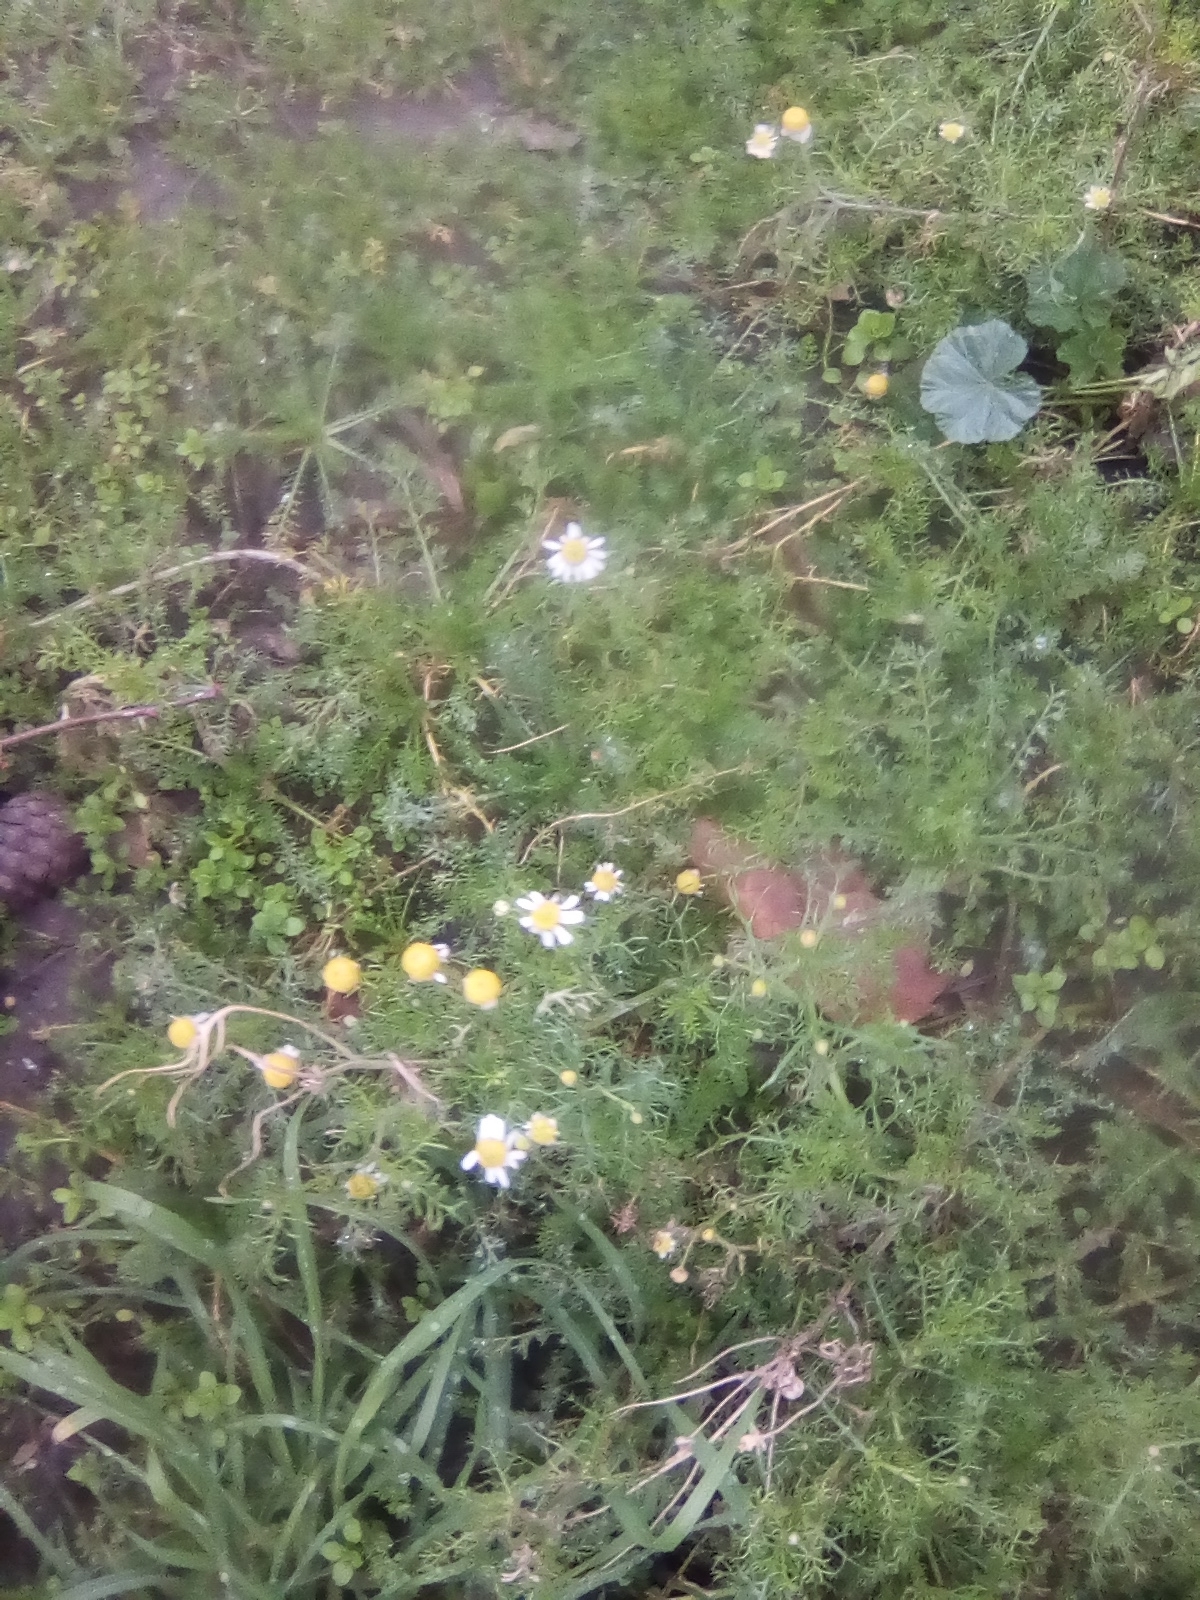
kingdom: Plantae
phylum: Tracheophyta
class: Magnoliopsida
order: Asterales
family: Asteraceae
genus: Tripleurospermum
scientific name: Tripleurospermum inodorum
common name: Scentless mayweed
